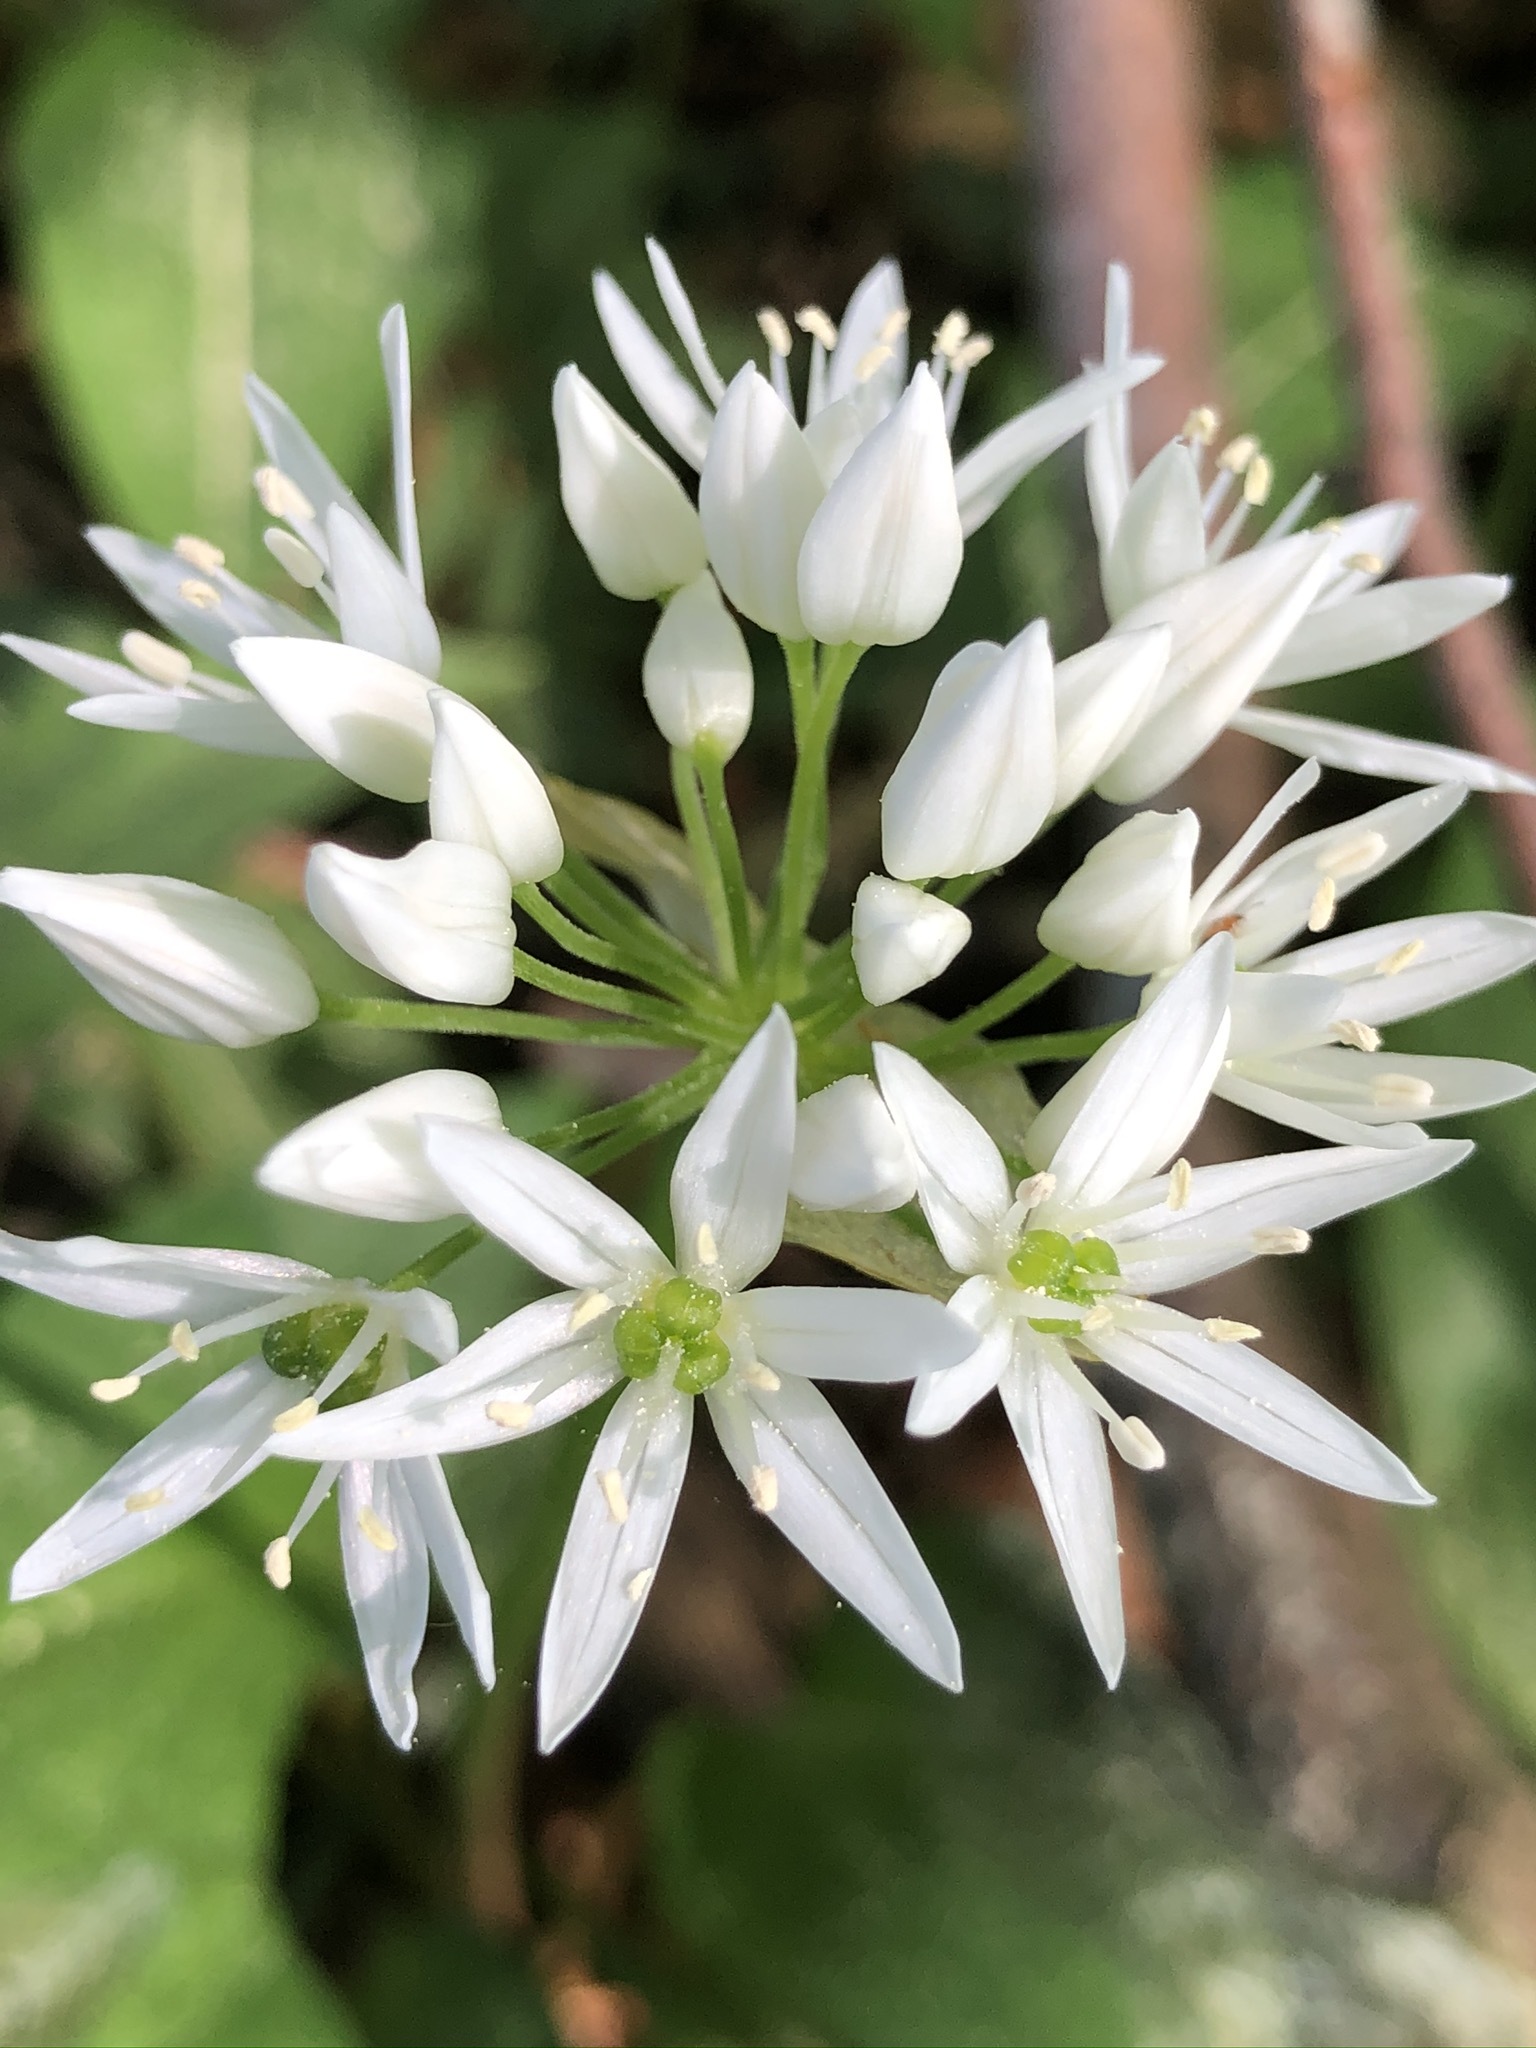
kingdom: Plantae
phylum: Tracheophyta
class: Liliopsida
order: Asparagales
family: Amaryllidaceae
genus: Allium
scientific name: Allium ursinum
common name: Ramsons
